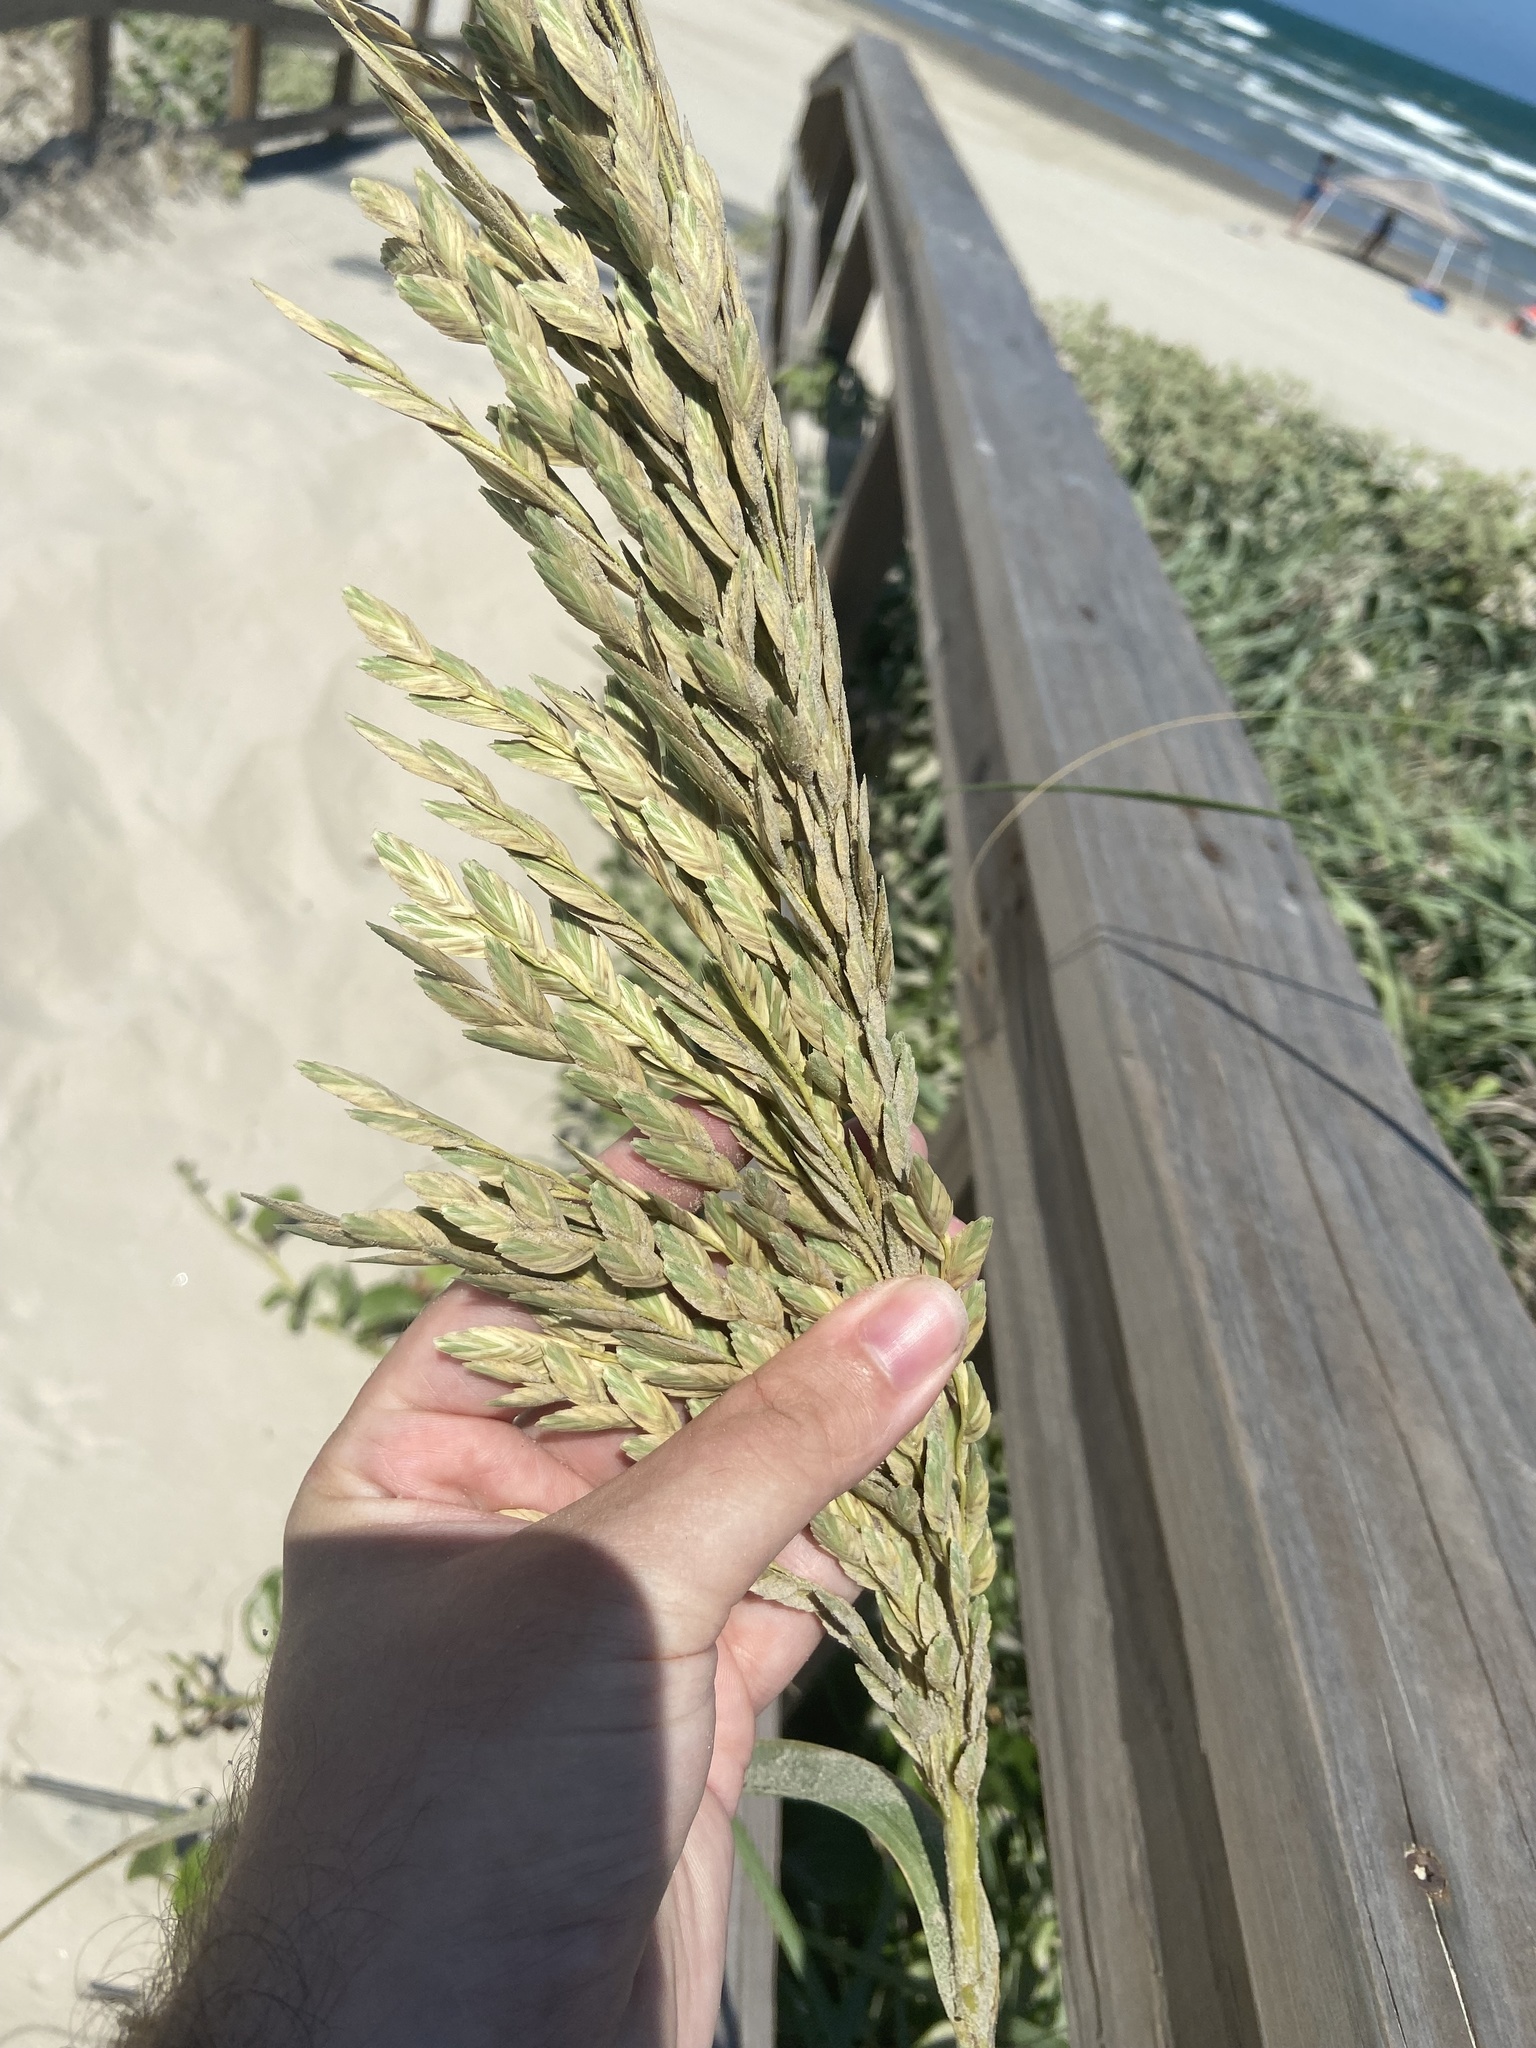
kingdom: Plantae
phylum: Tracheophyta
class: Liliopsida
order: Poales
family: Poaceae
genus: Uniola
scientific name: Uniola paniculata
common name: Seaside-oats
